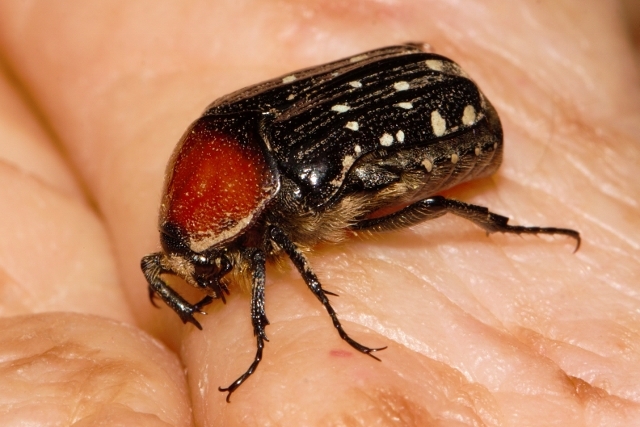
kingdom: Animalia
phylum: Arthropoda
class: Insecta
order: Coleoptera
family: Scarabaeidae
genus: Clinteroides
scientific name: Clinteroides permutans
